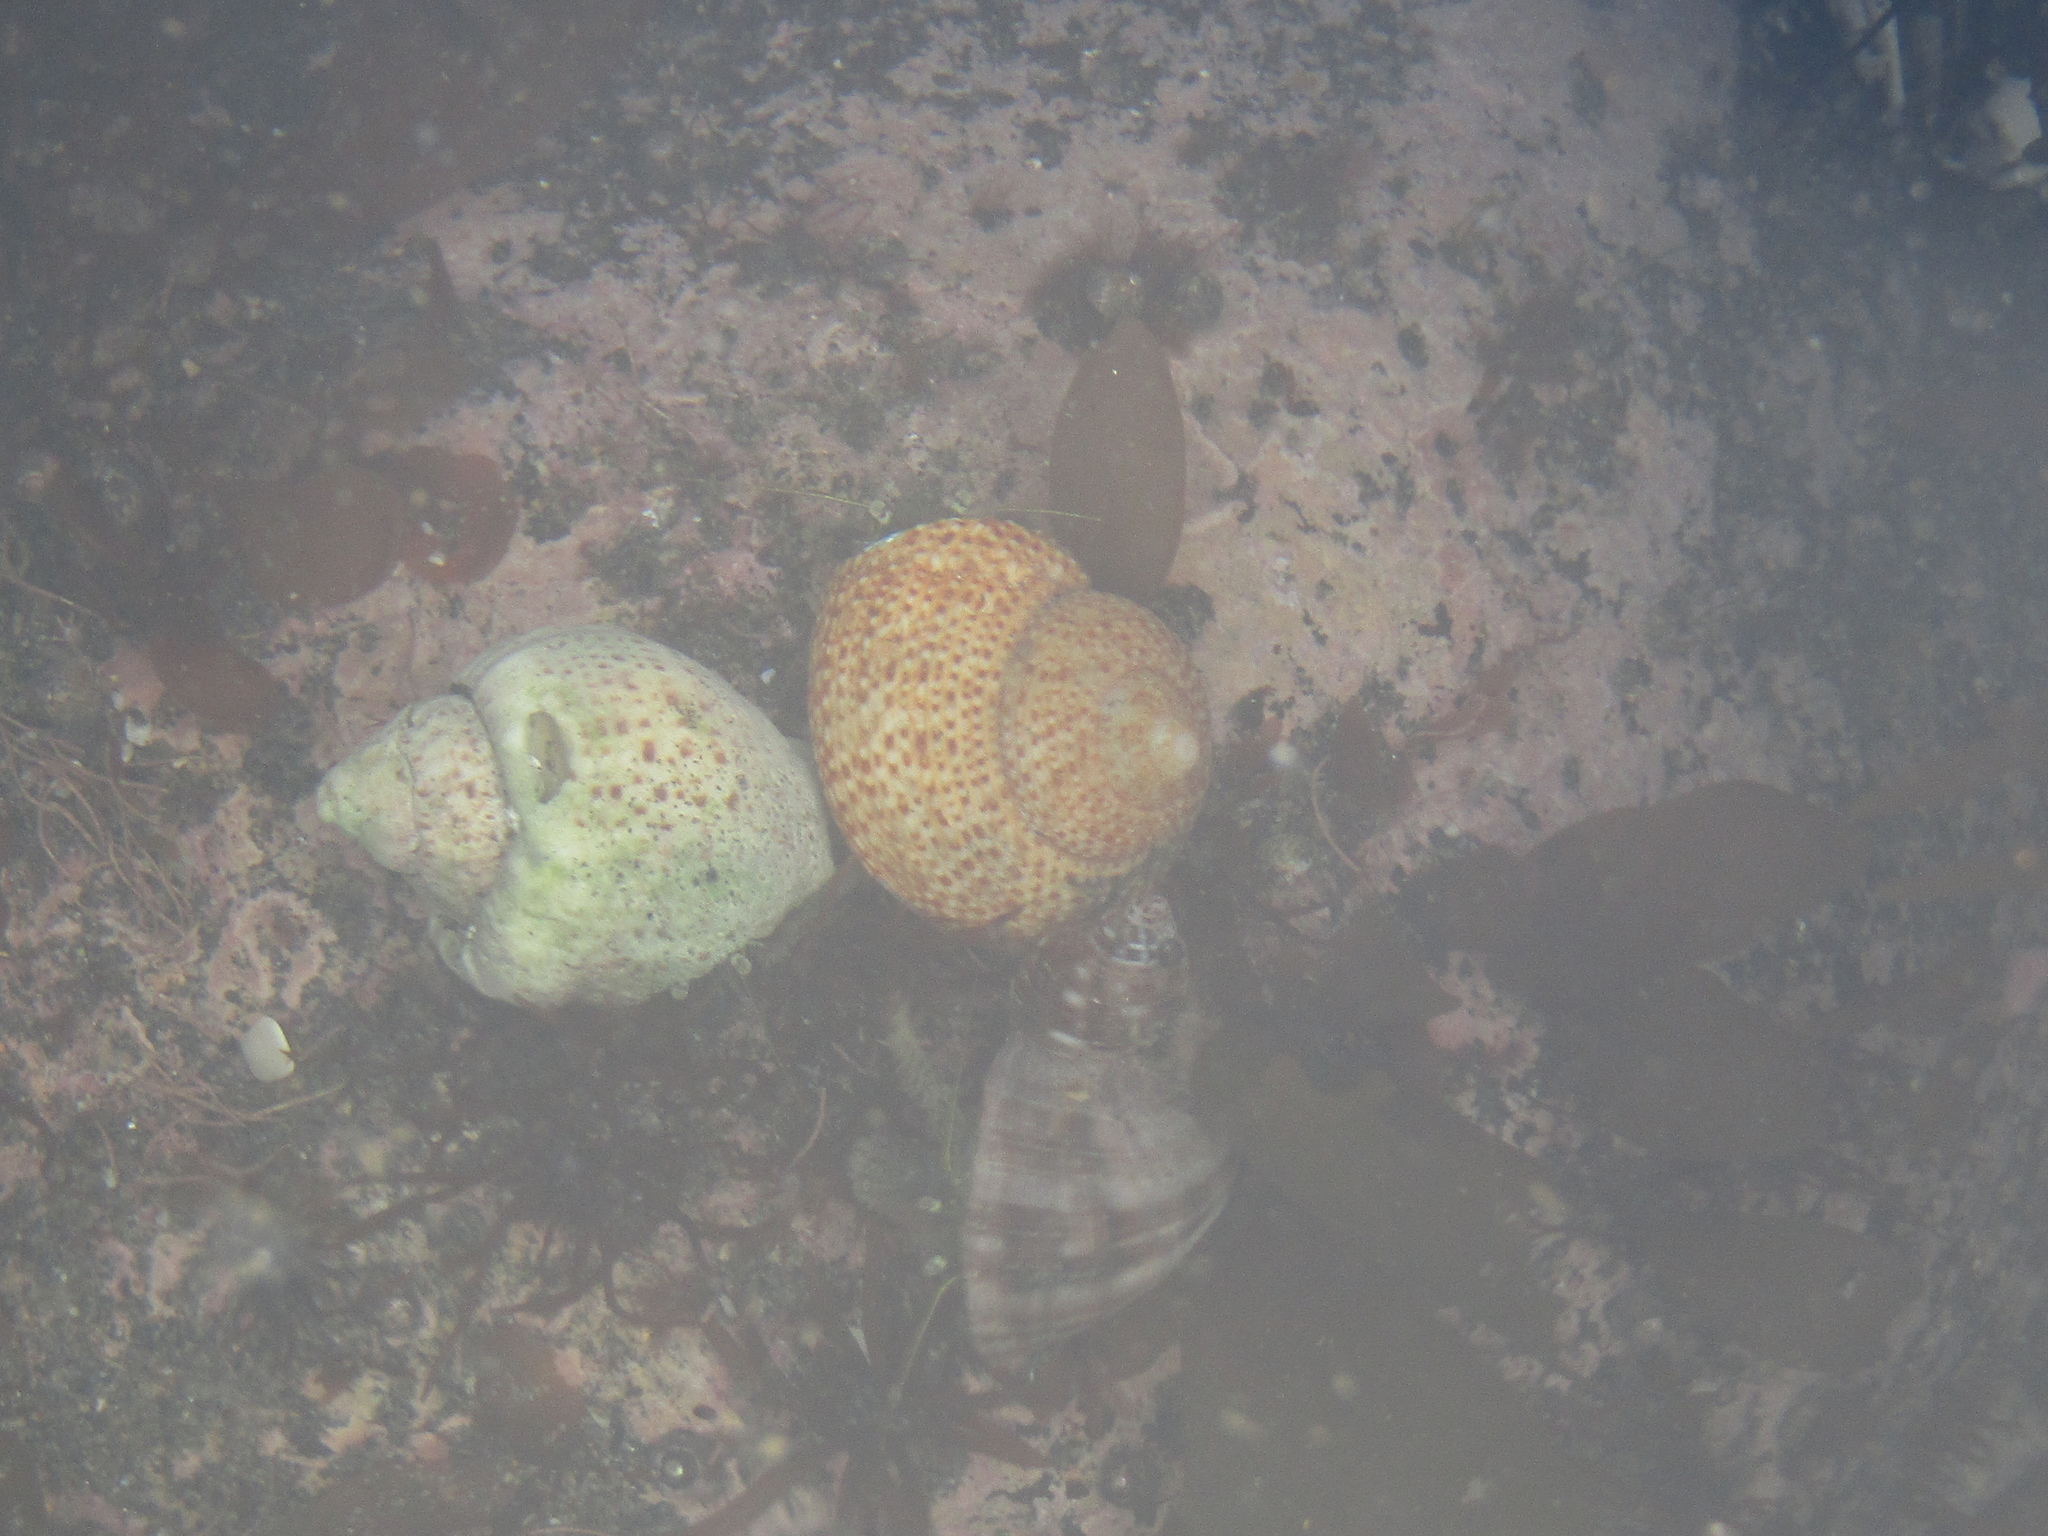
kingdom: Animalia
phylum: Mollusca
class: Gastropoda
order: Trochida
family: Calliostomatidae
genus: Maurea
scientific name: Maurea punctulata
